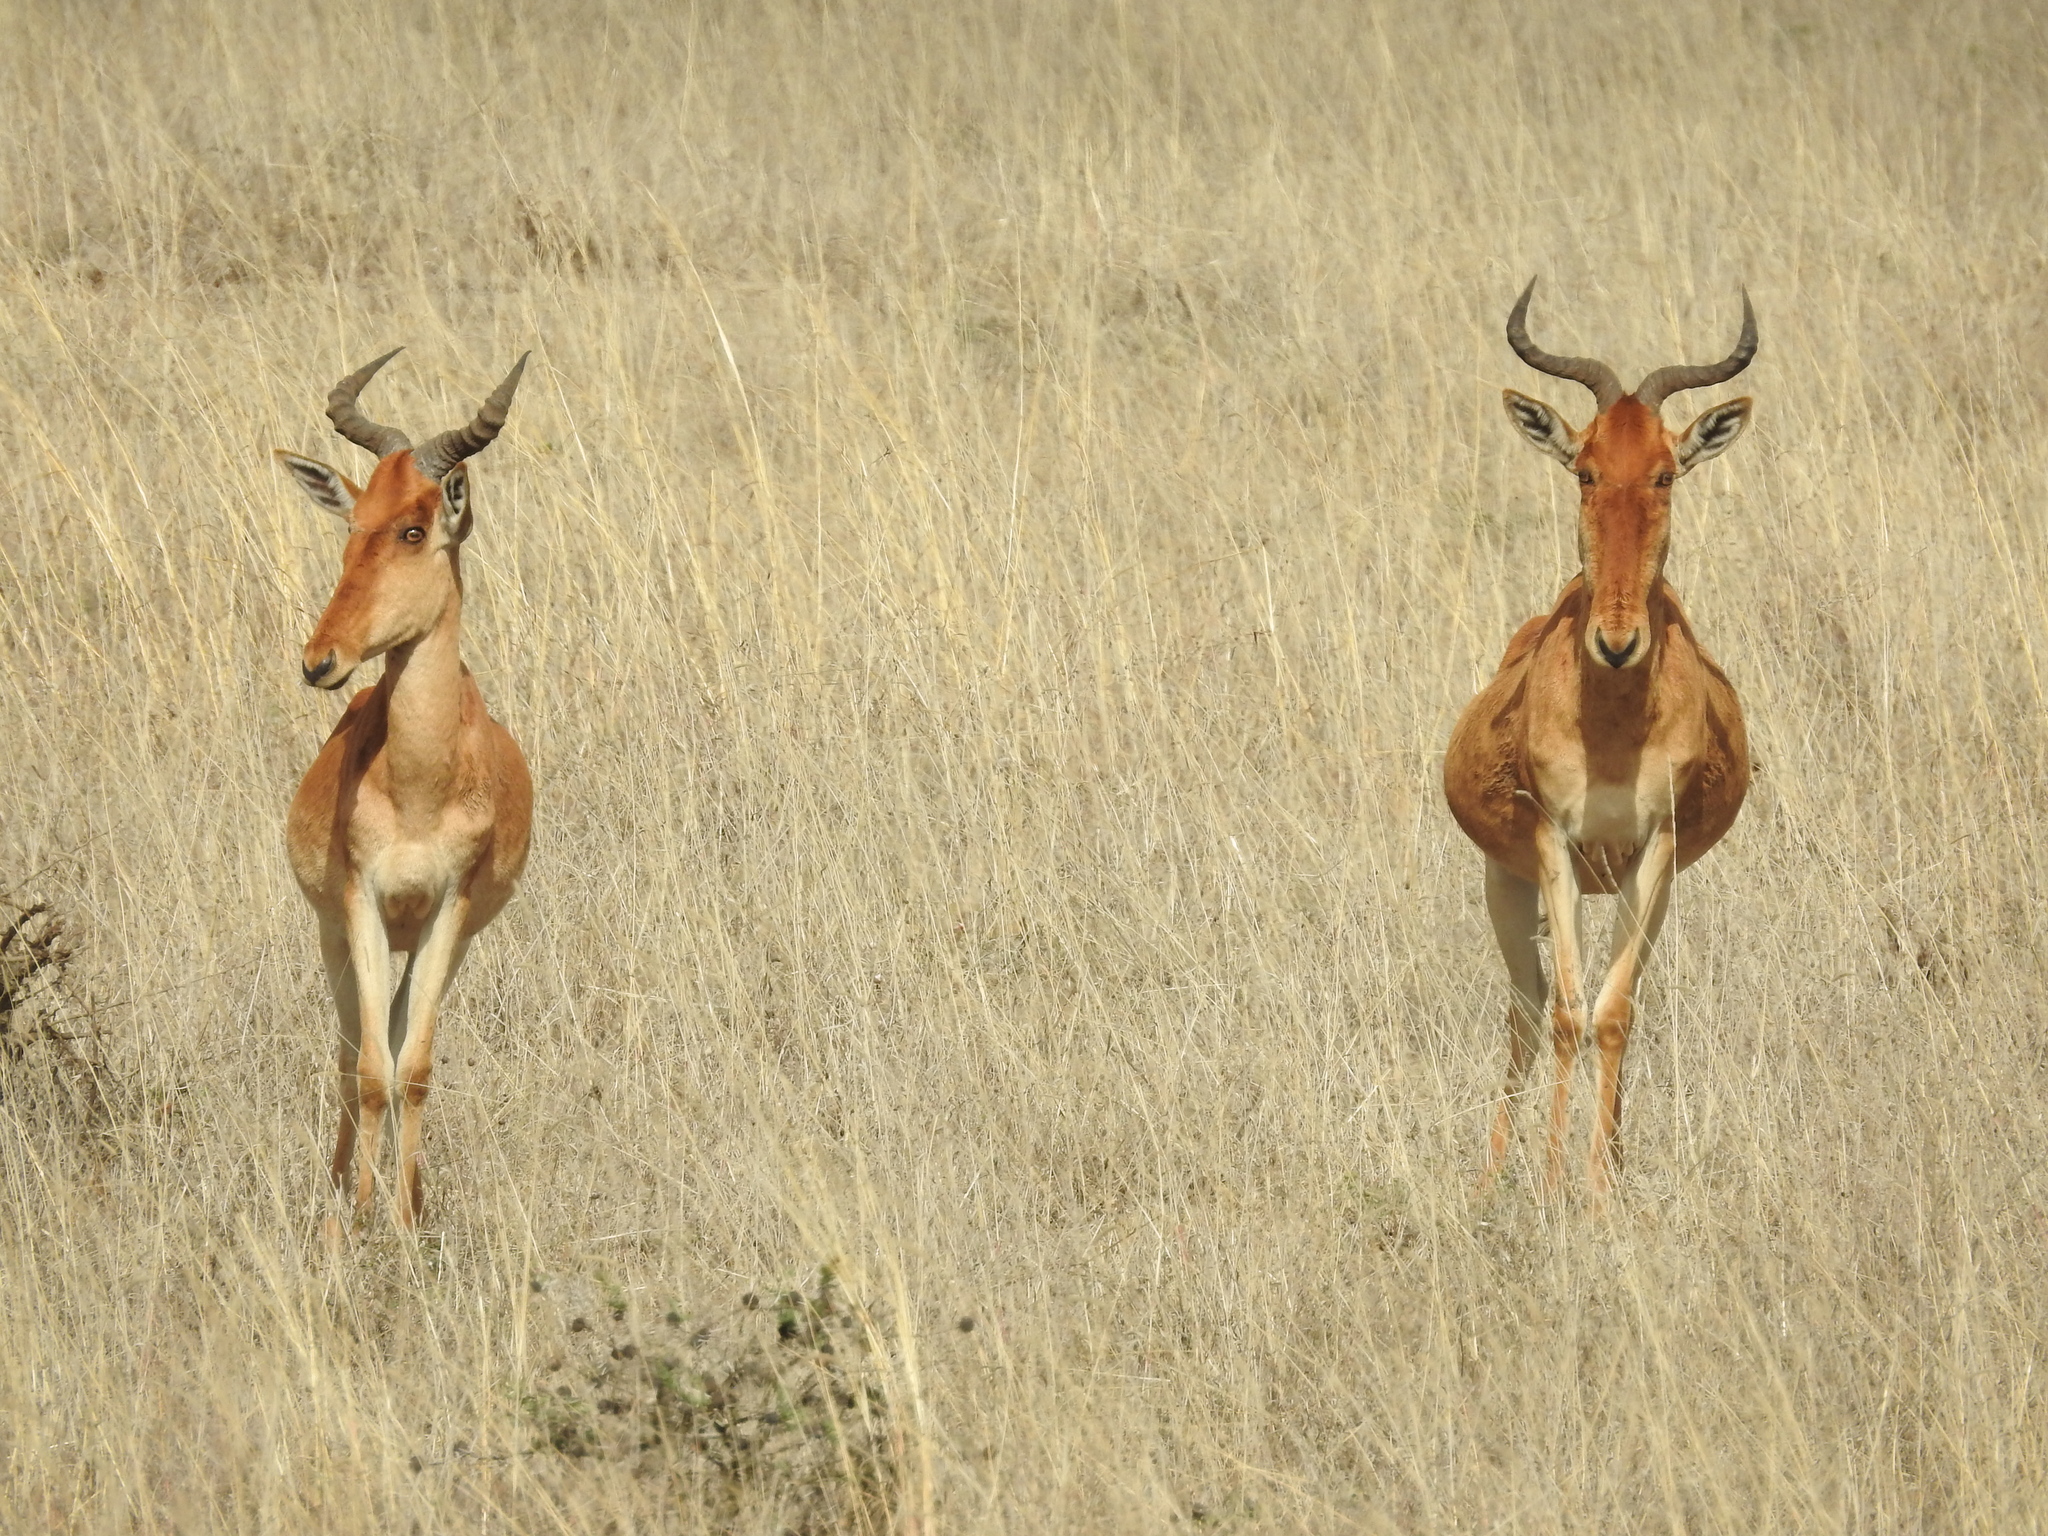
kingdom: Animalia
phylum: Chordata
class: Mammalia
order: Artiodactyla
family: Bovidae
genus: Alcelaphus
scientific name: Alcelaphus buselaphus
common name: Hartebeest
